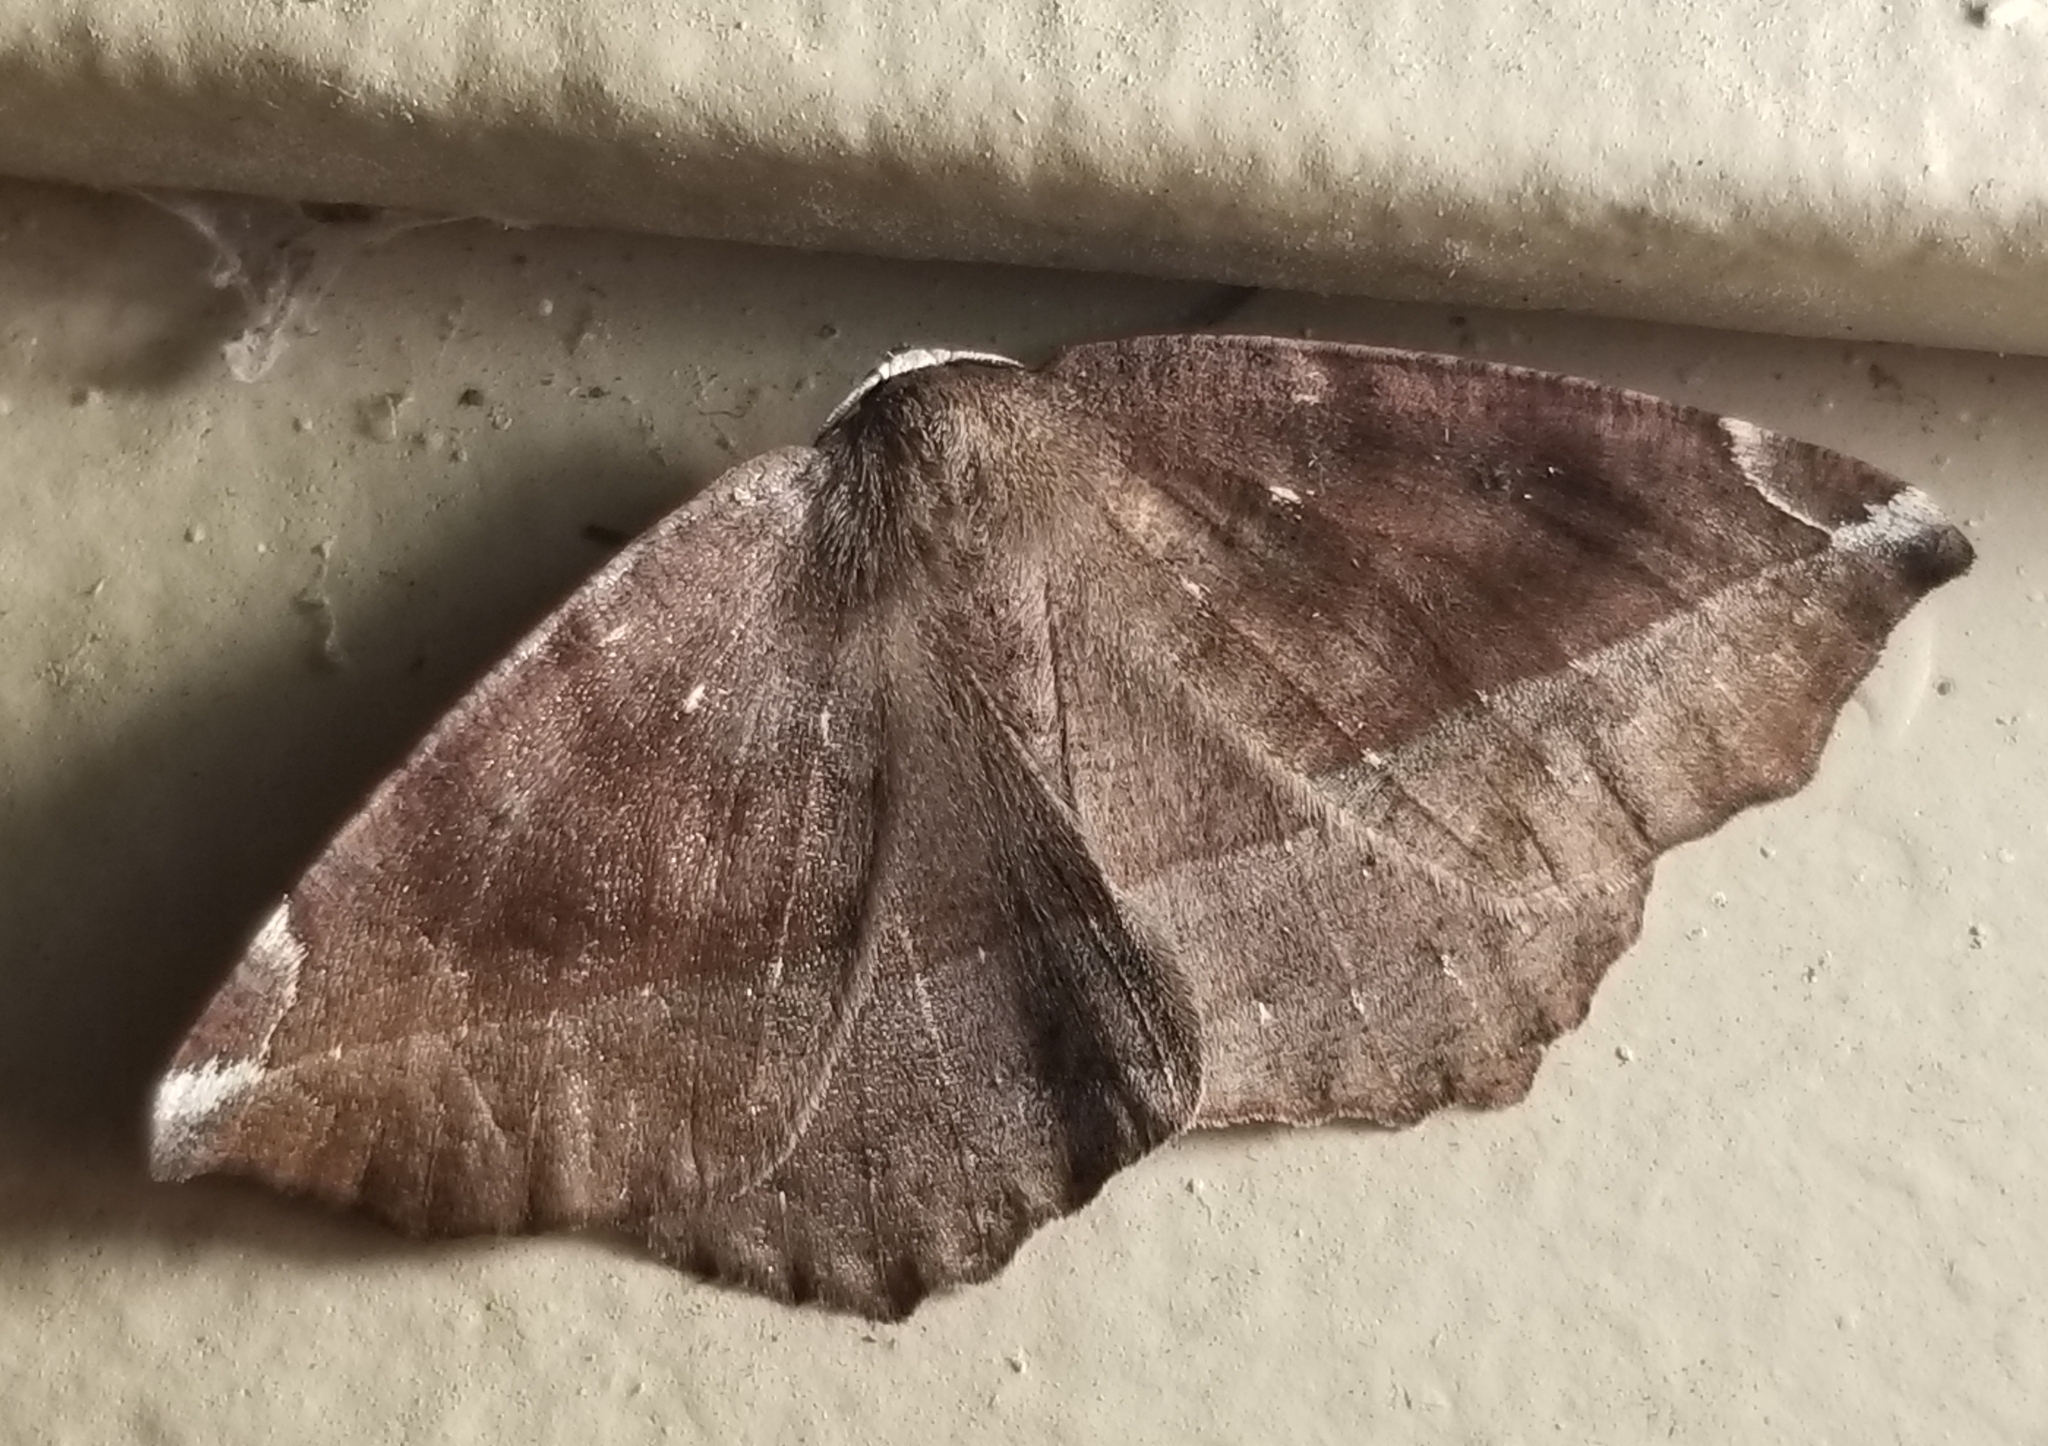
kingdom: Animalia
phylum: Arthropoda
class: Insecta
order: Lepidoptera
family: Geometridae
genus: Eutrapela
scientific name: Eutrapela clemataria
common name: Curved-toothed geometer
